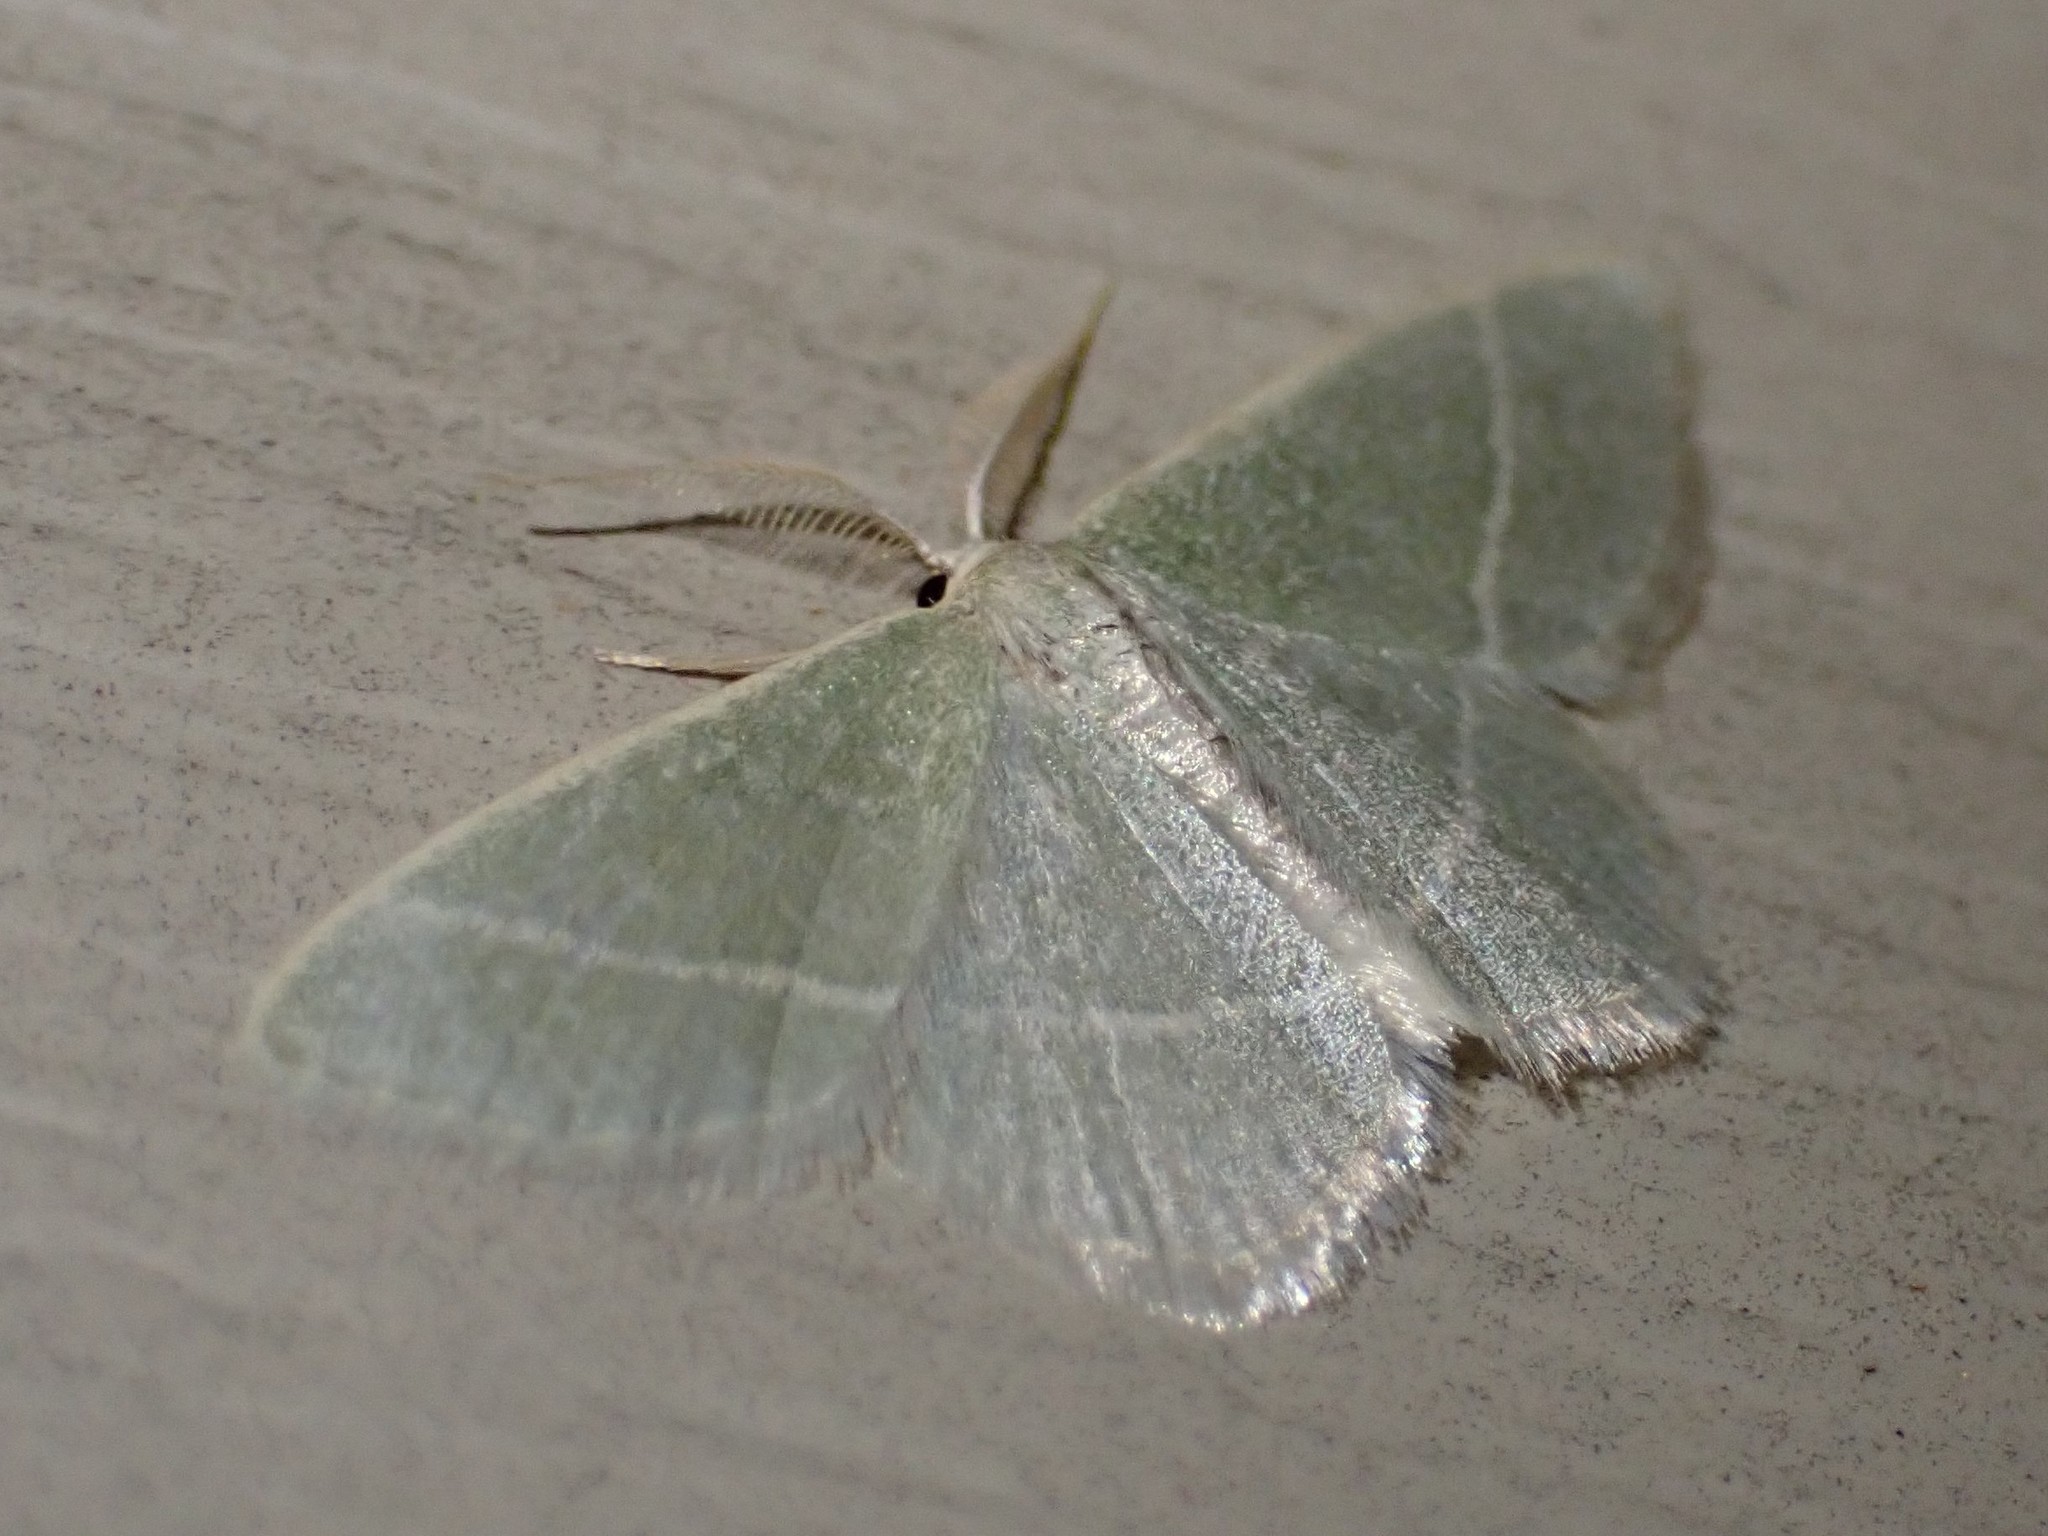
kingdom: Animalia
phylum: Arthropoda
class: Insecta
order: Lepidoptera
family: Geometridae
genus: Chlorochlamys
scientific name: Chlorochlamys chloroleucaria
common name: Blackberry looper
